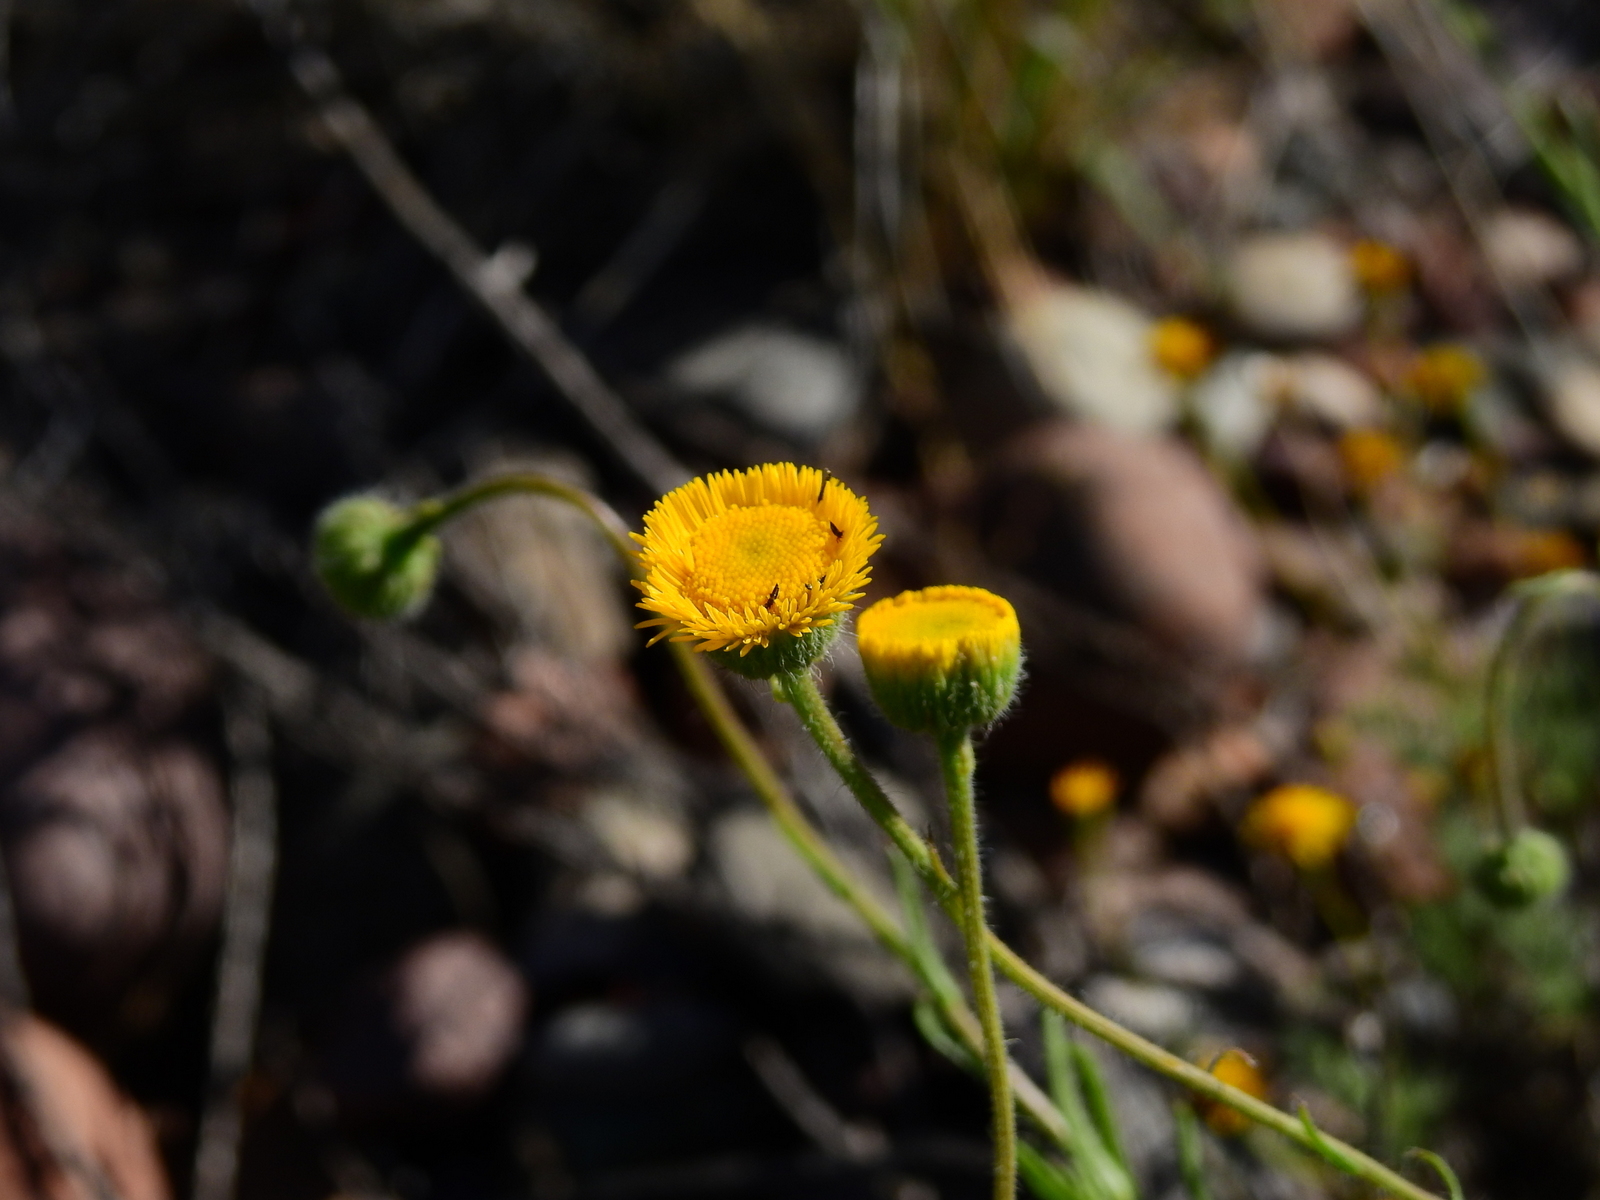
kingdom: Plantae
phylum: Tracheophyta
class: Magnoliopsida
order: Asterales
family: Asteraceae
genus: Hysterionica
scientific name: Hysterionica jasionoides
